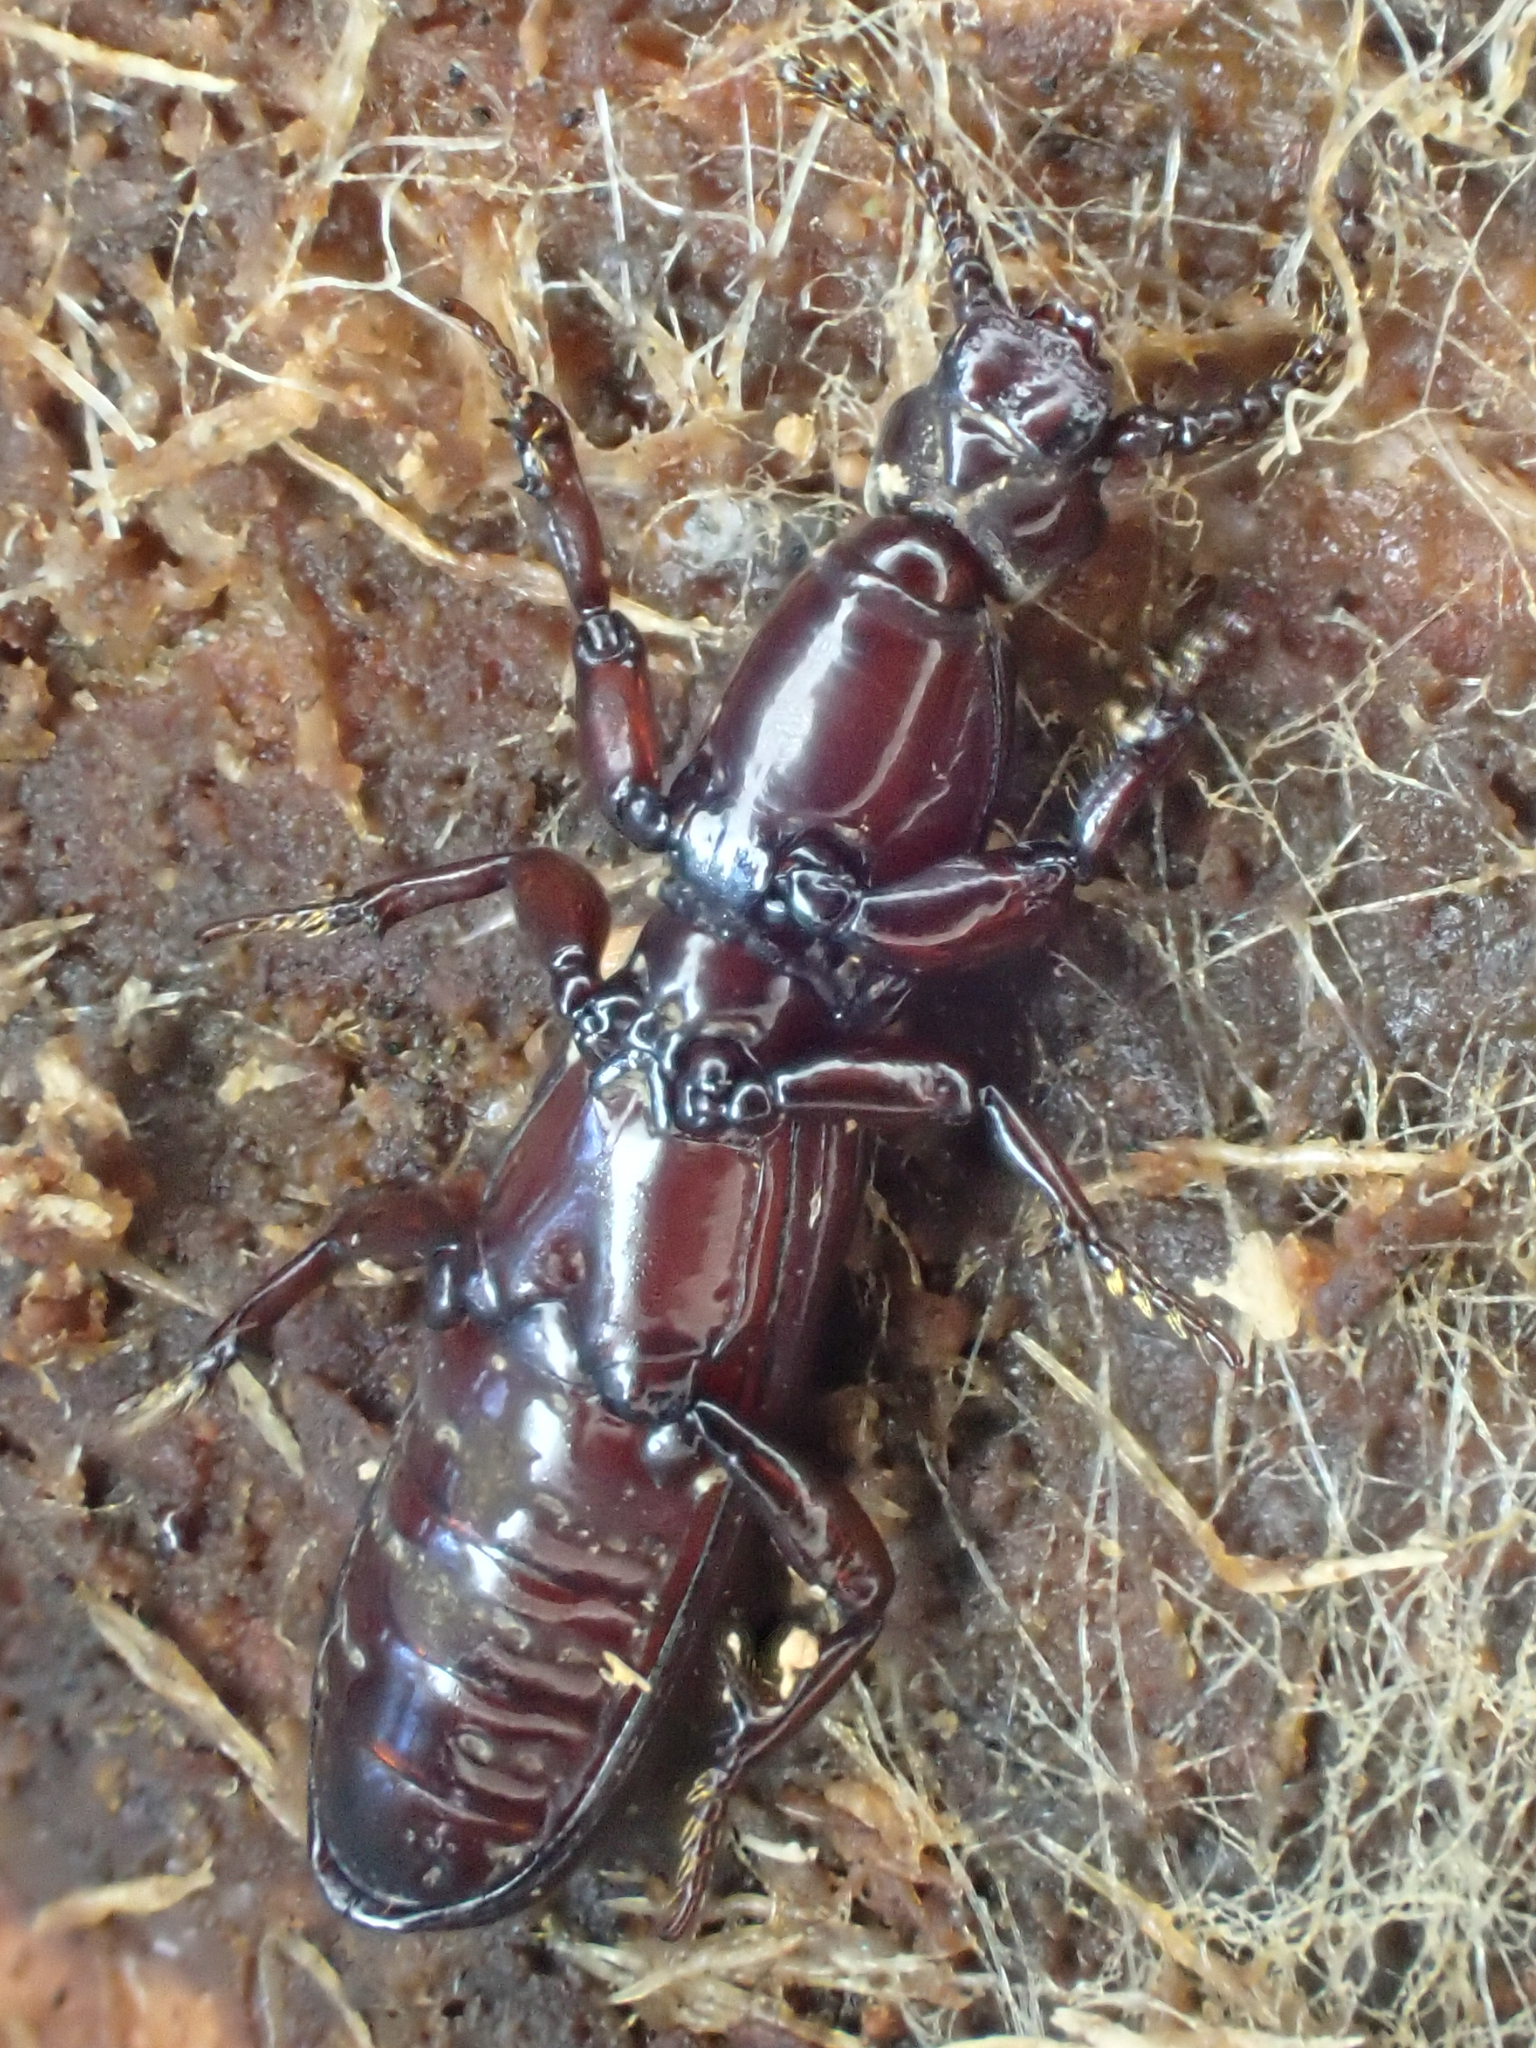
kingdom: Animalia
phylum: Arthropoda
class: Insecta
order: Coleoptera
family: Carabidae
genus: Clinidium
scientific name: Clinidium calcaratum
